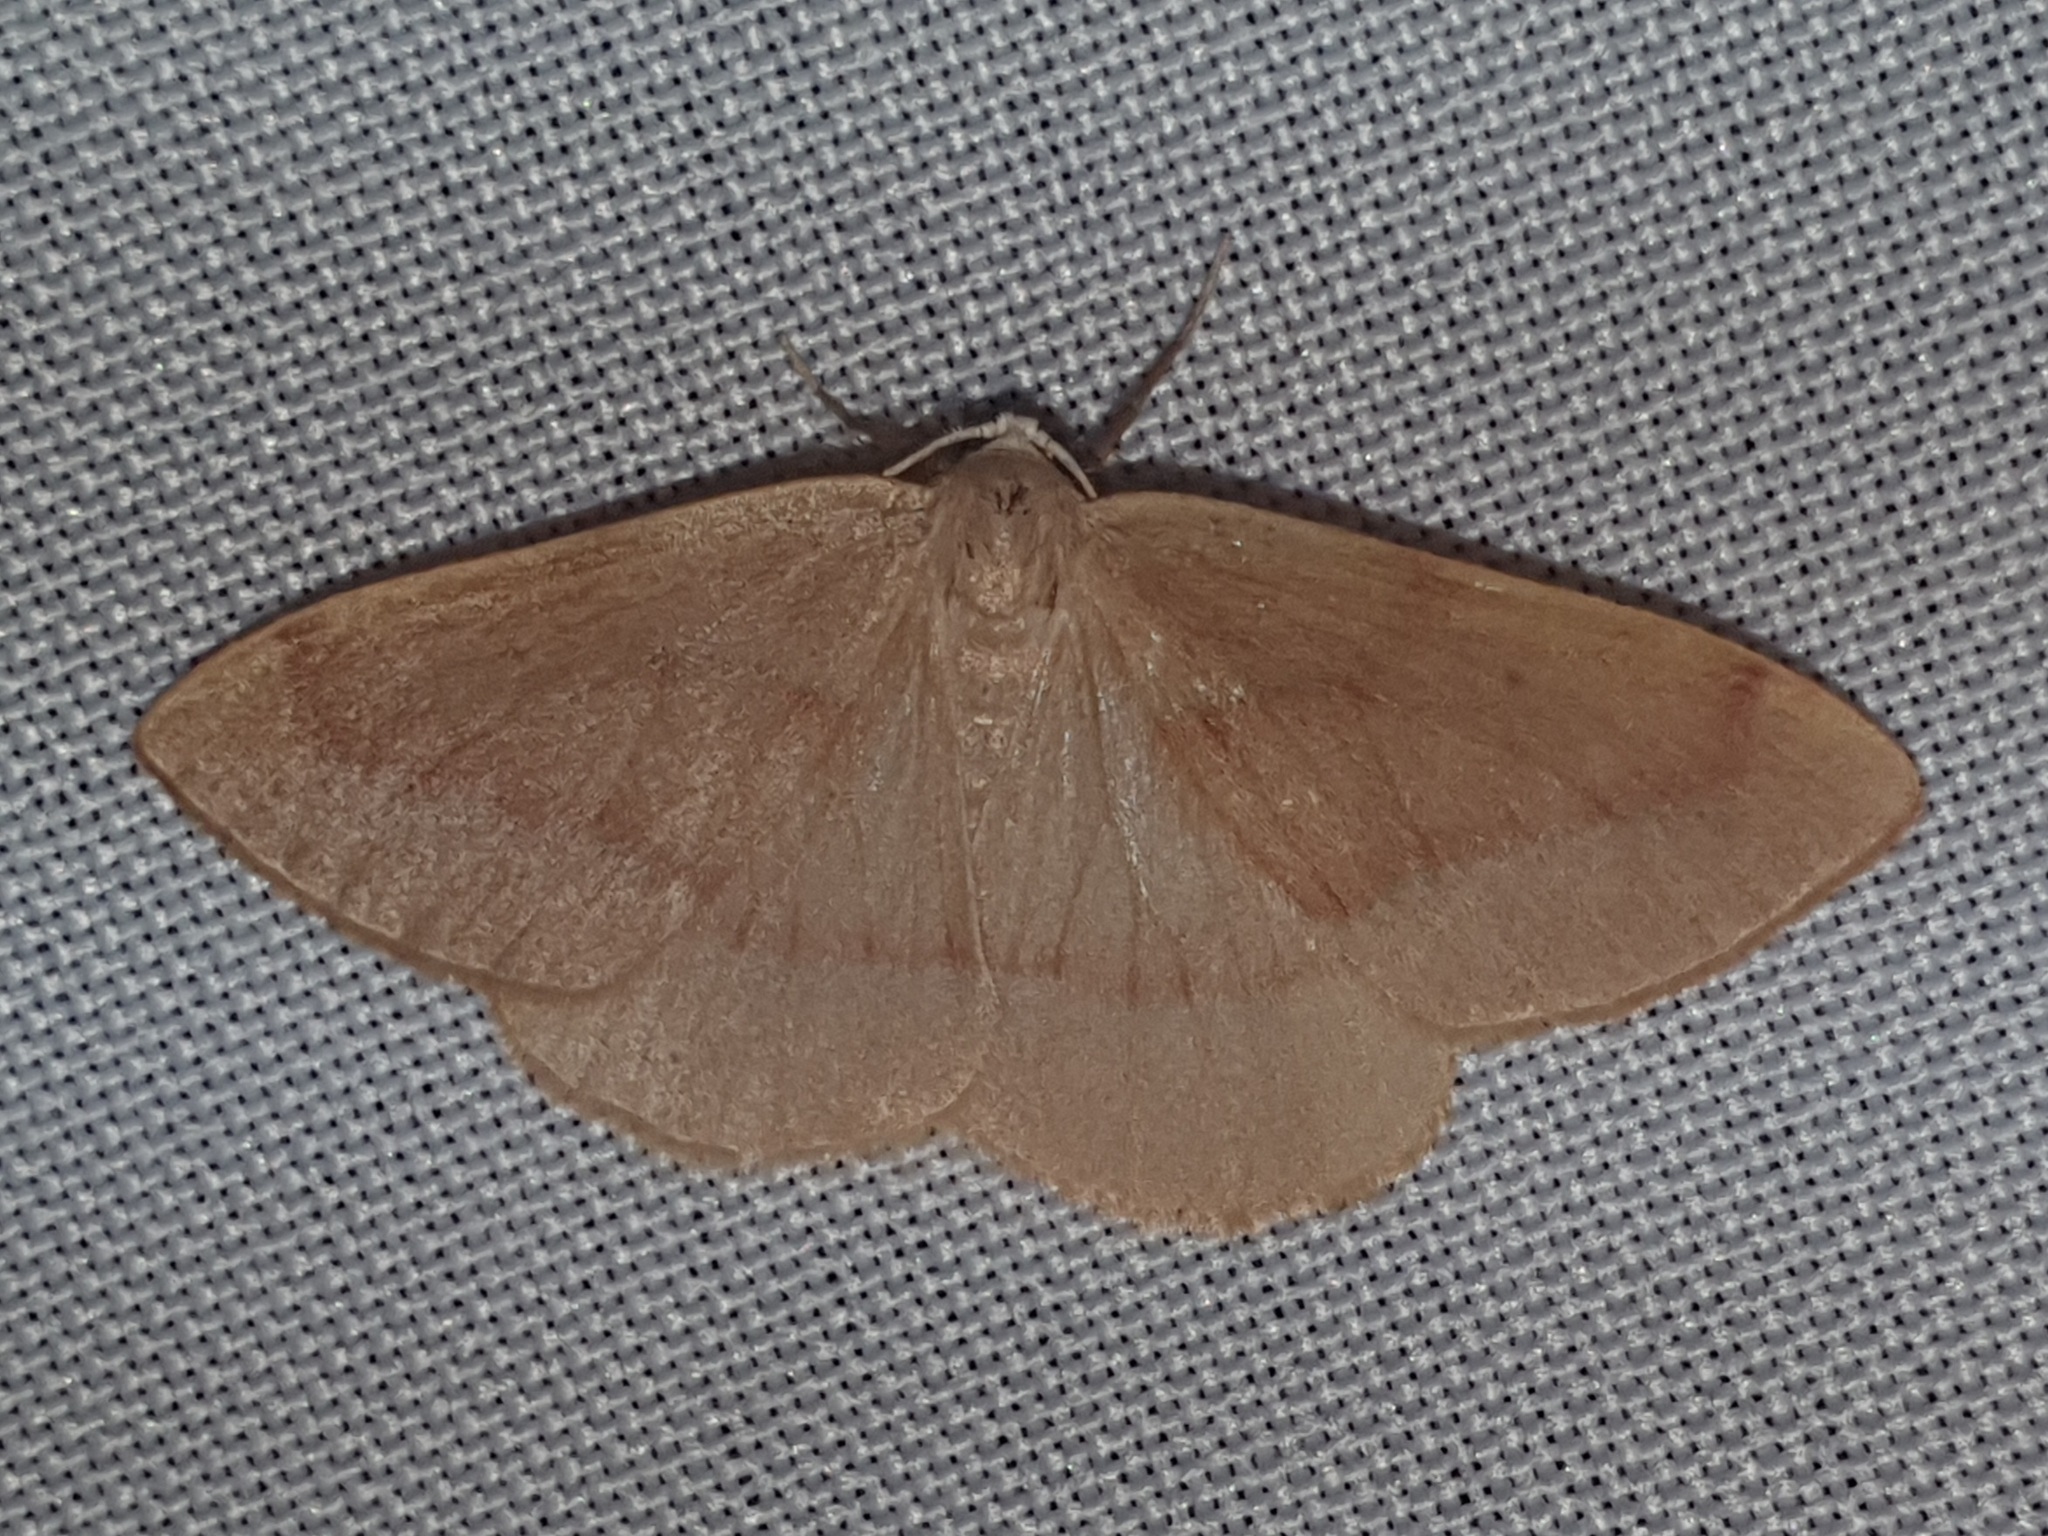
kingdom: Animalia
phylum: Arthropoda
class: Insecta
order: Lepidoptera
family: Geometridae
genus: Hylaea
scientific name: Hylaea fasciaria
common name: Barred red
